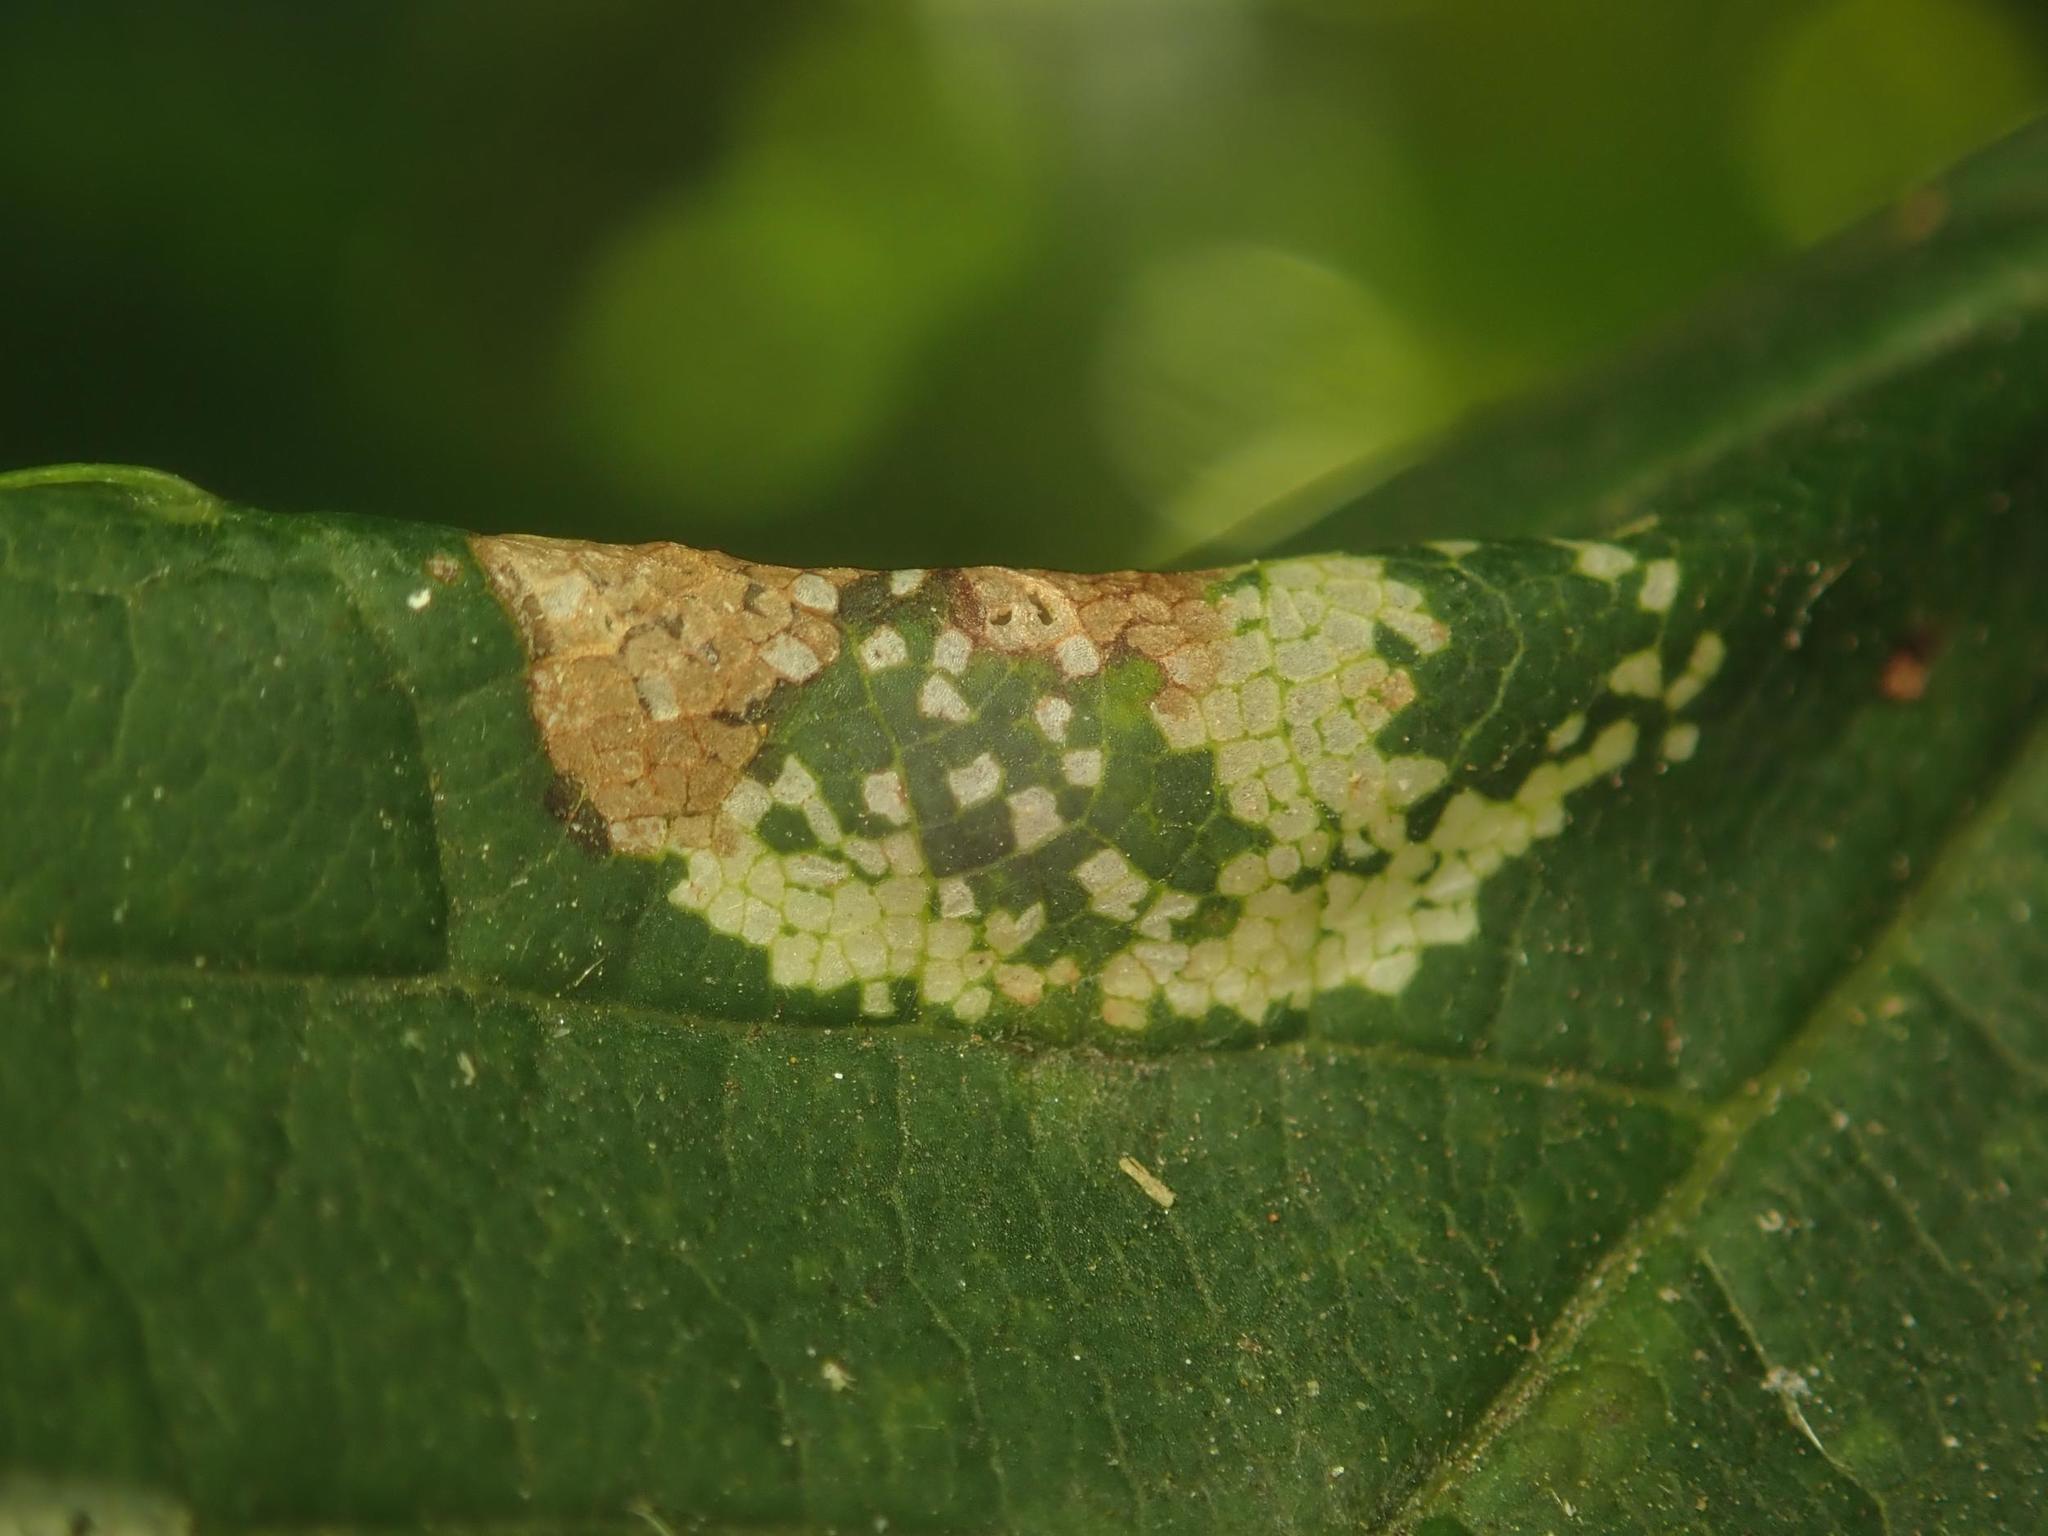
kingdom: Animalia
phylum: Arthropoda
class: Insecta
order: Lepidoptera
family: Gracillariidae
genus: Phyllonorycter
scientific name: Phyllonorycter geniculella
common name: Sycamore midget
